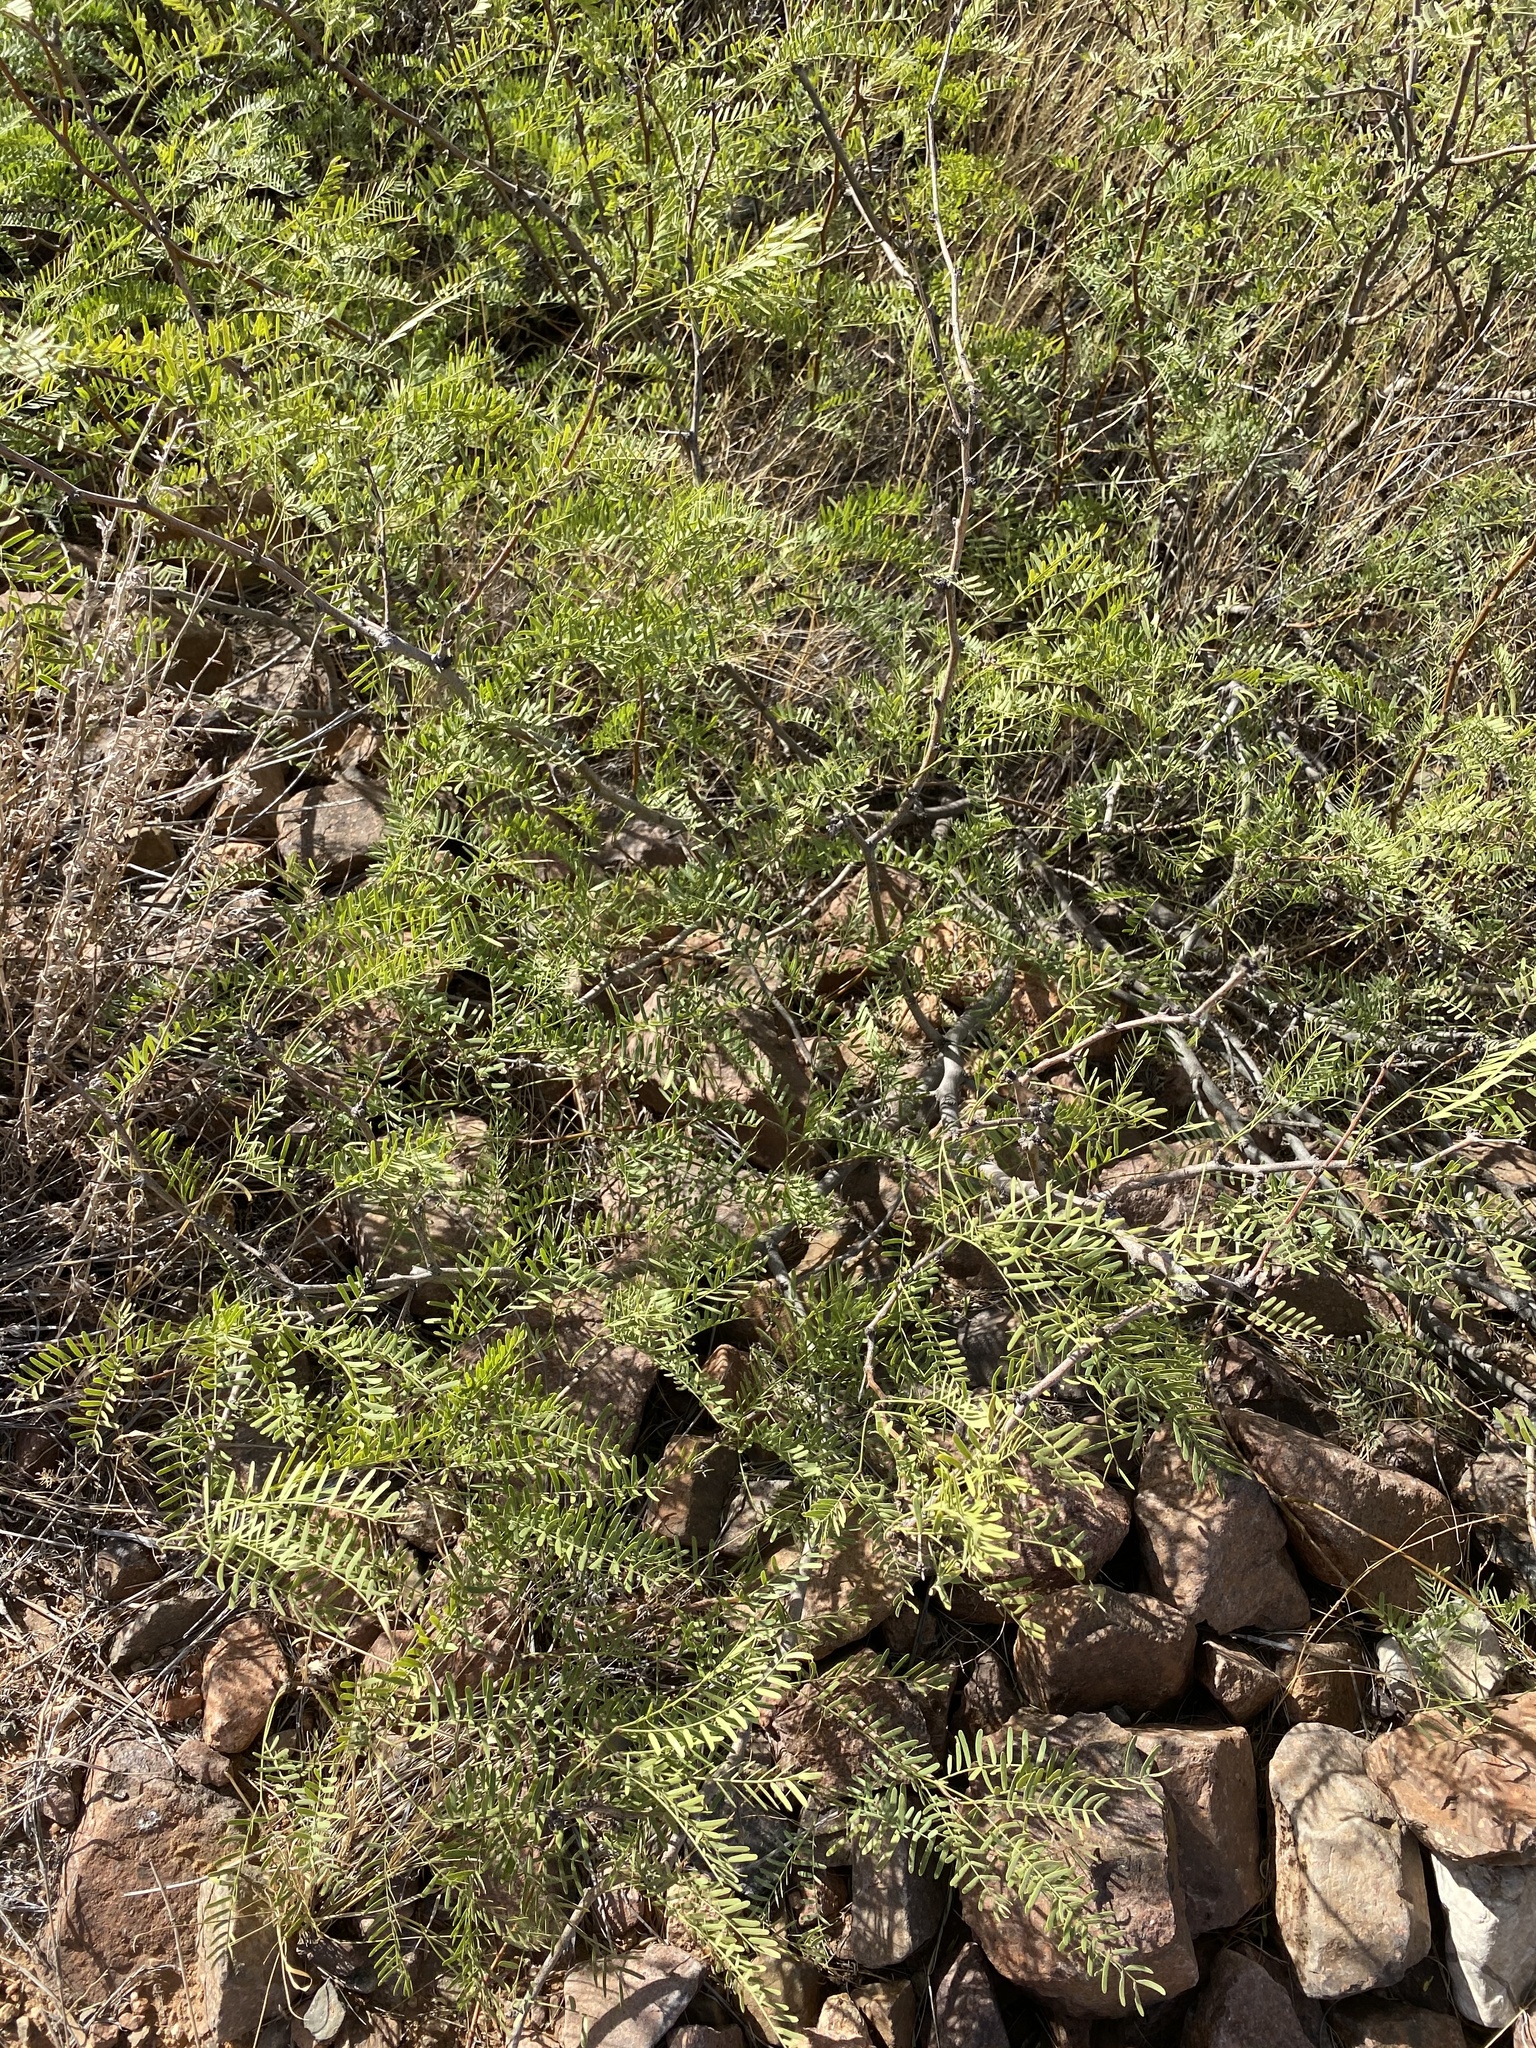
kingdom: Plantae
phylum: Tracheophyta
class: Magnoliopsida
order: Fabales
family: Fabaceae
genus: Prosopis
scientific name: Prosopis glandulosa
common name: Honey mesquite
